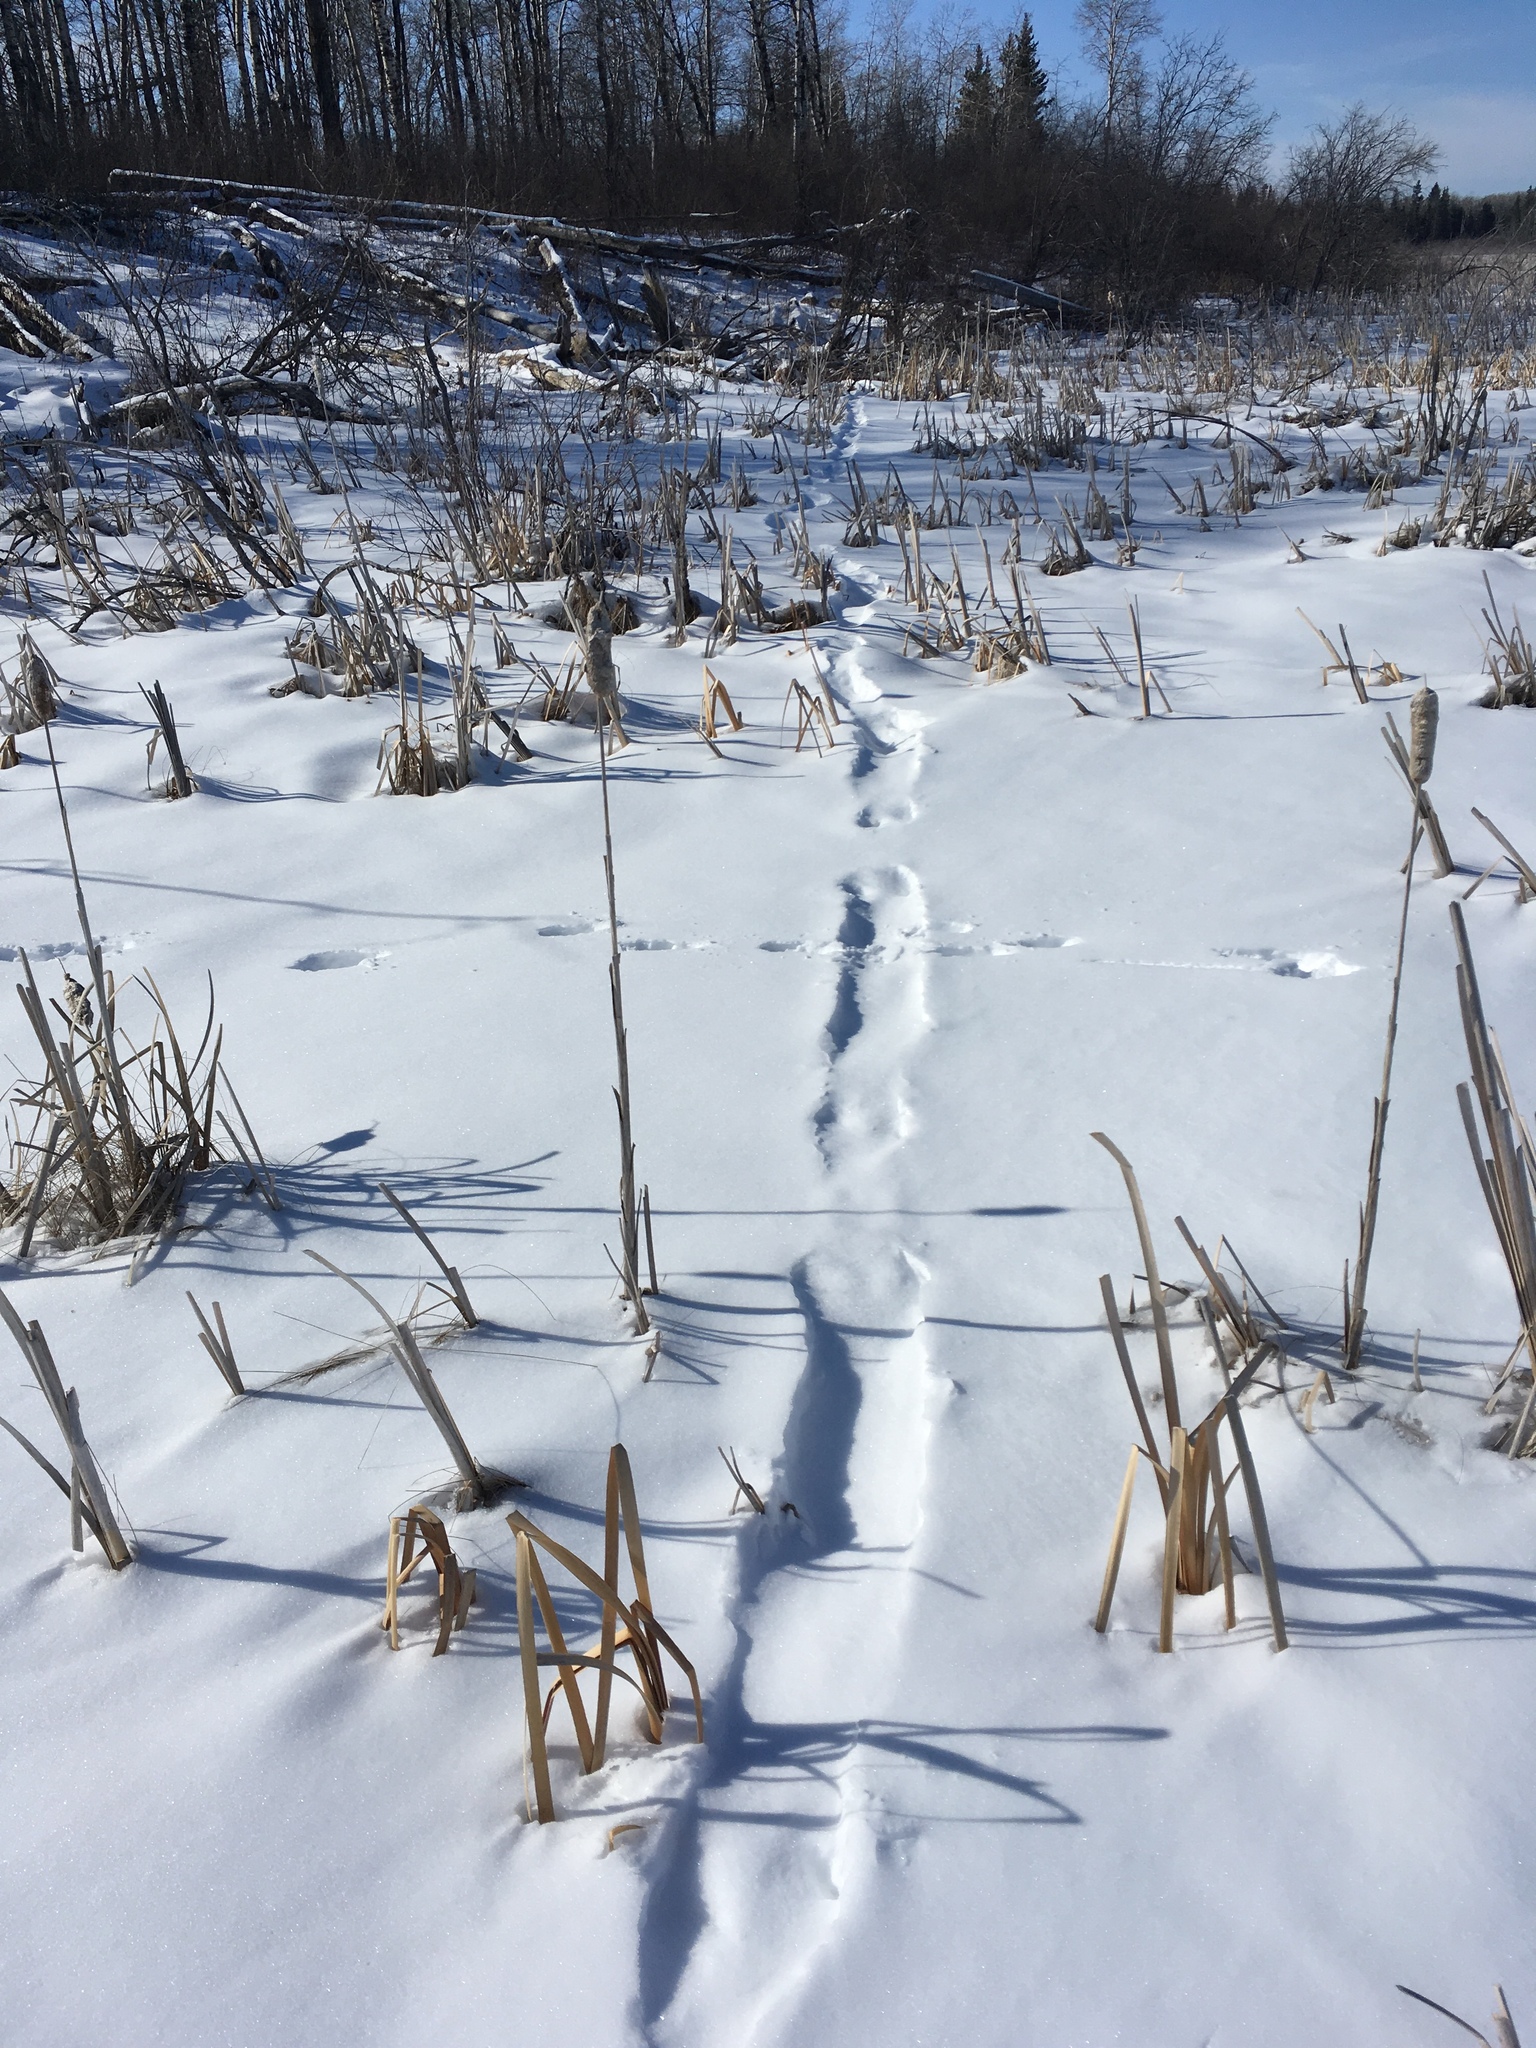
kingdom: Animalia
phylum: Chordata
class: Mammalia
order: Carnivora
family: Mustelidae
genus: Lontra
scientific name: Lontra canadensis
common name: North american river otter
